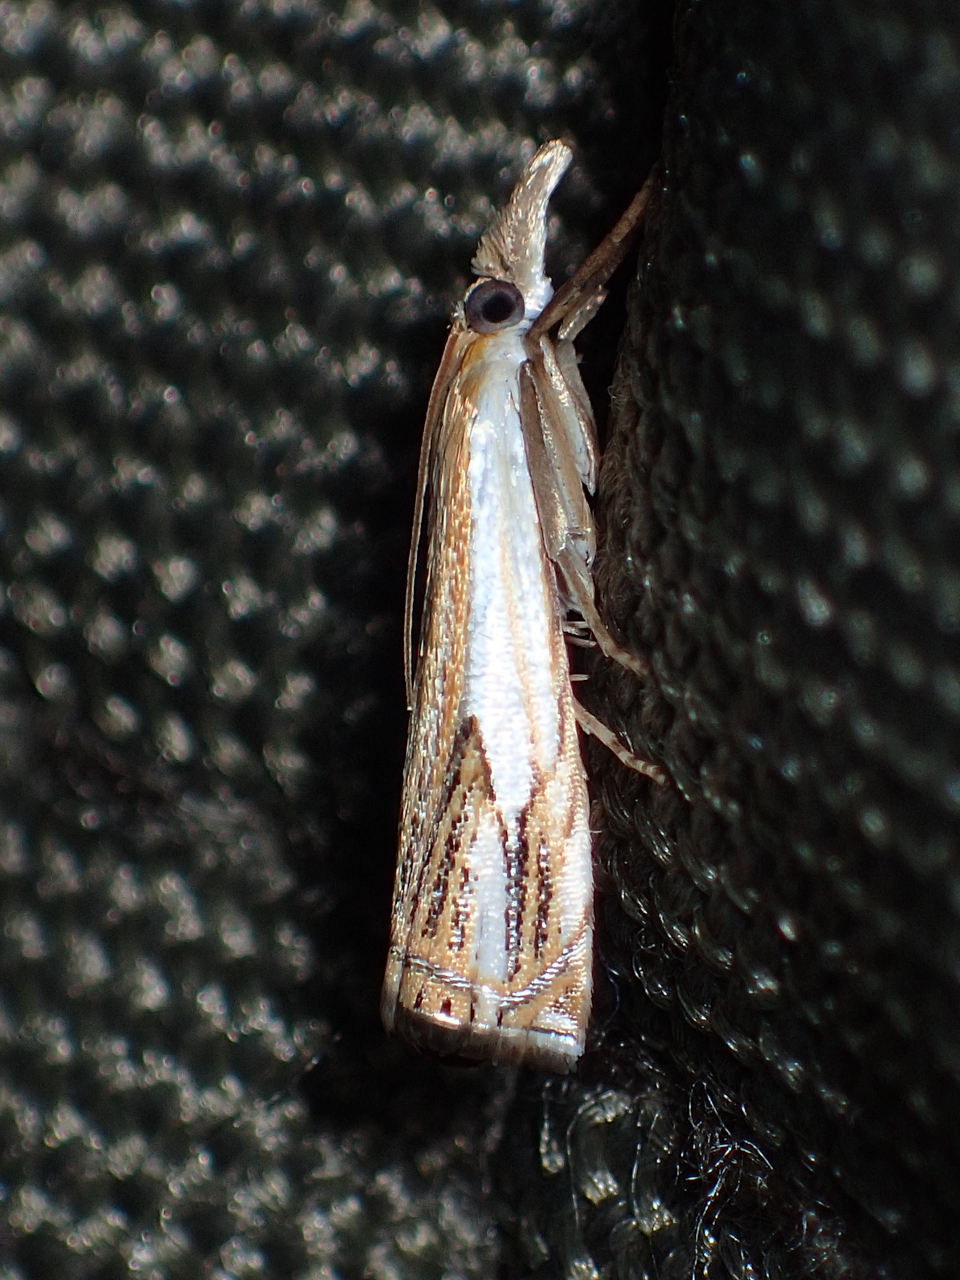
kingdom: Animalia
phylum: Arthropoda
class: Insecta
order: Lepidoptera
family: Crambidae
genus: Crambus
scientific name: Crambus agitatellus
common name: Double-banded grass-veneer
